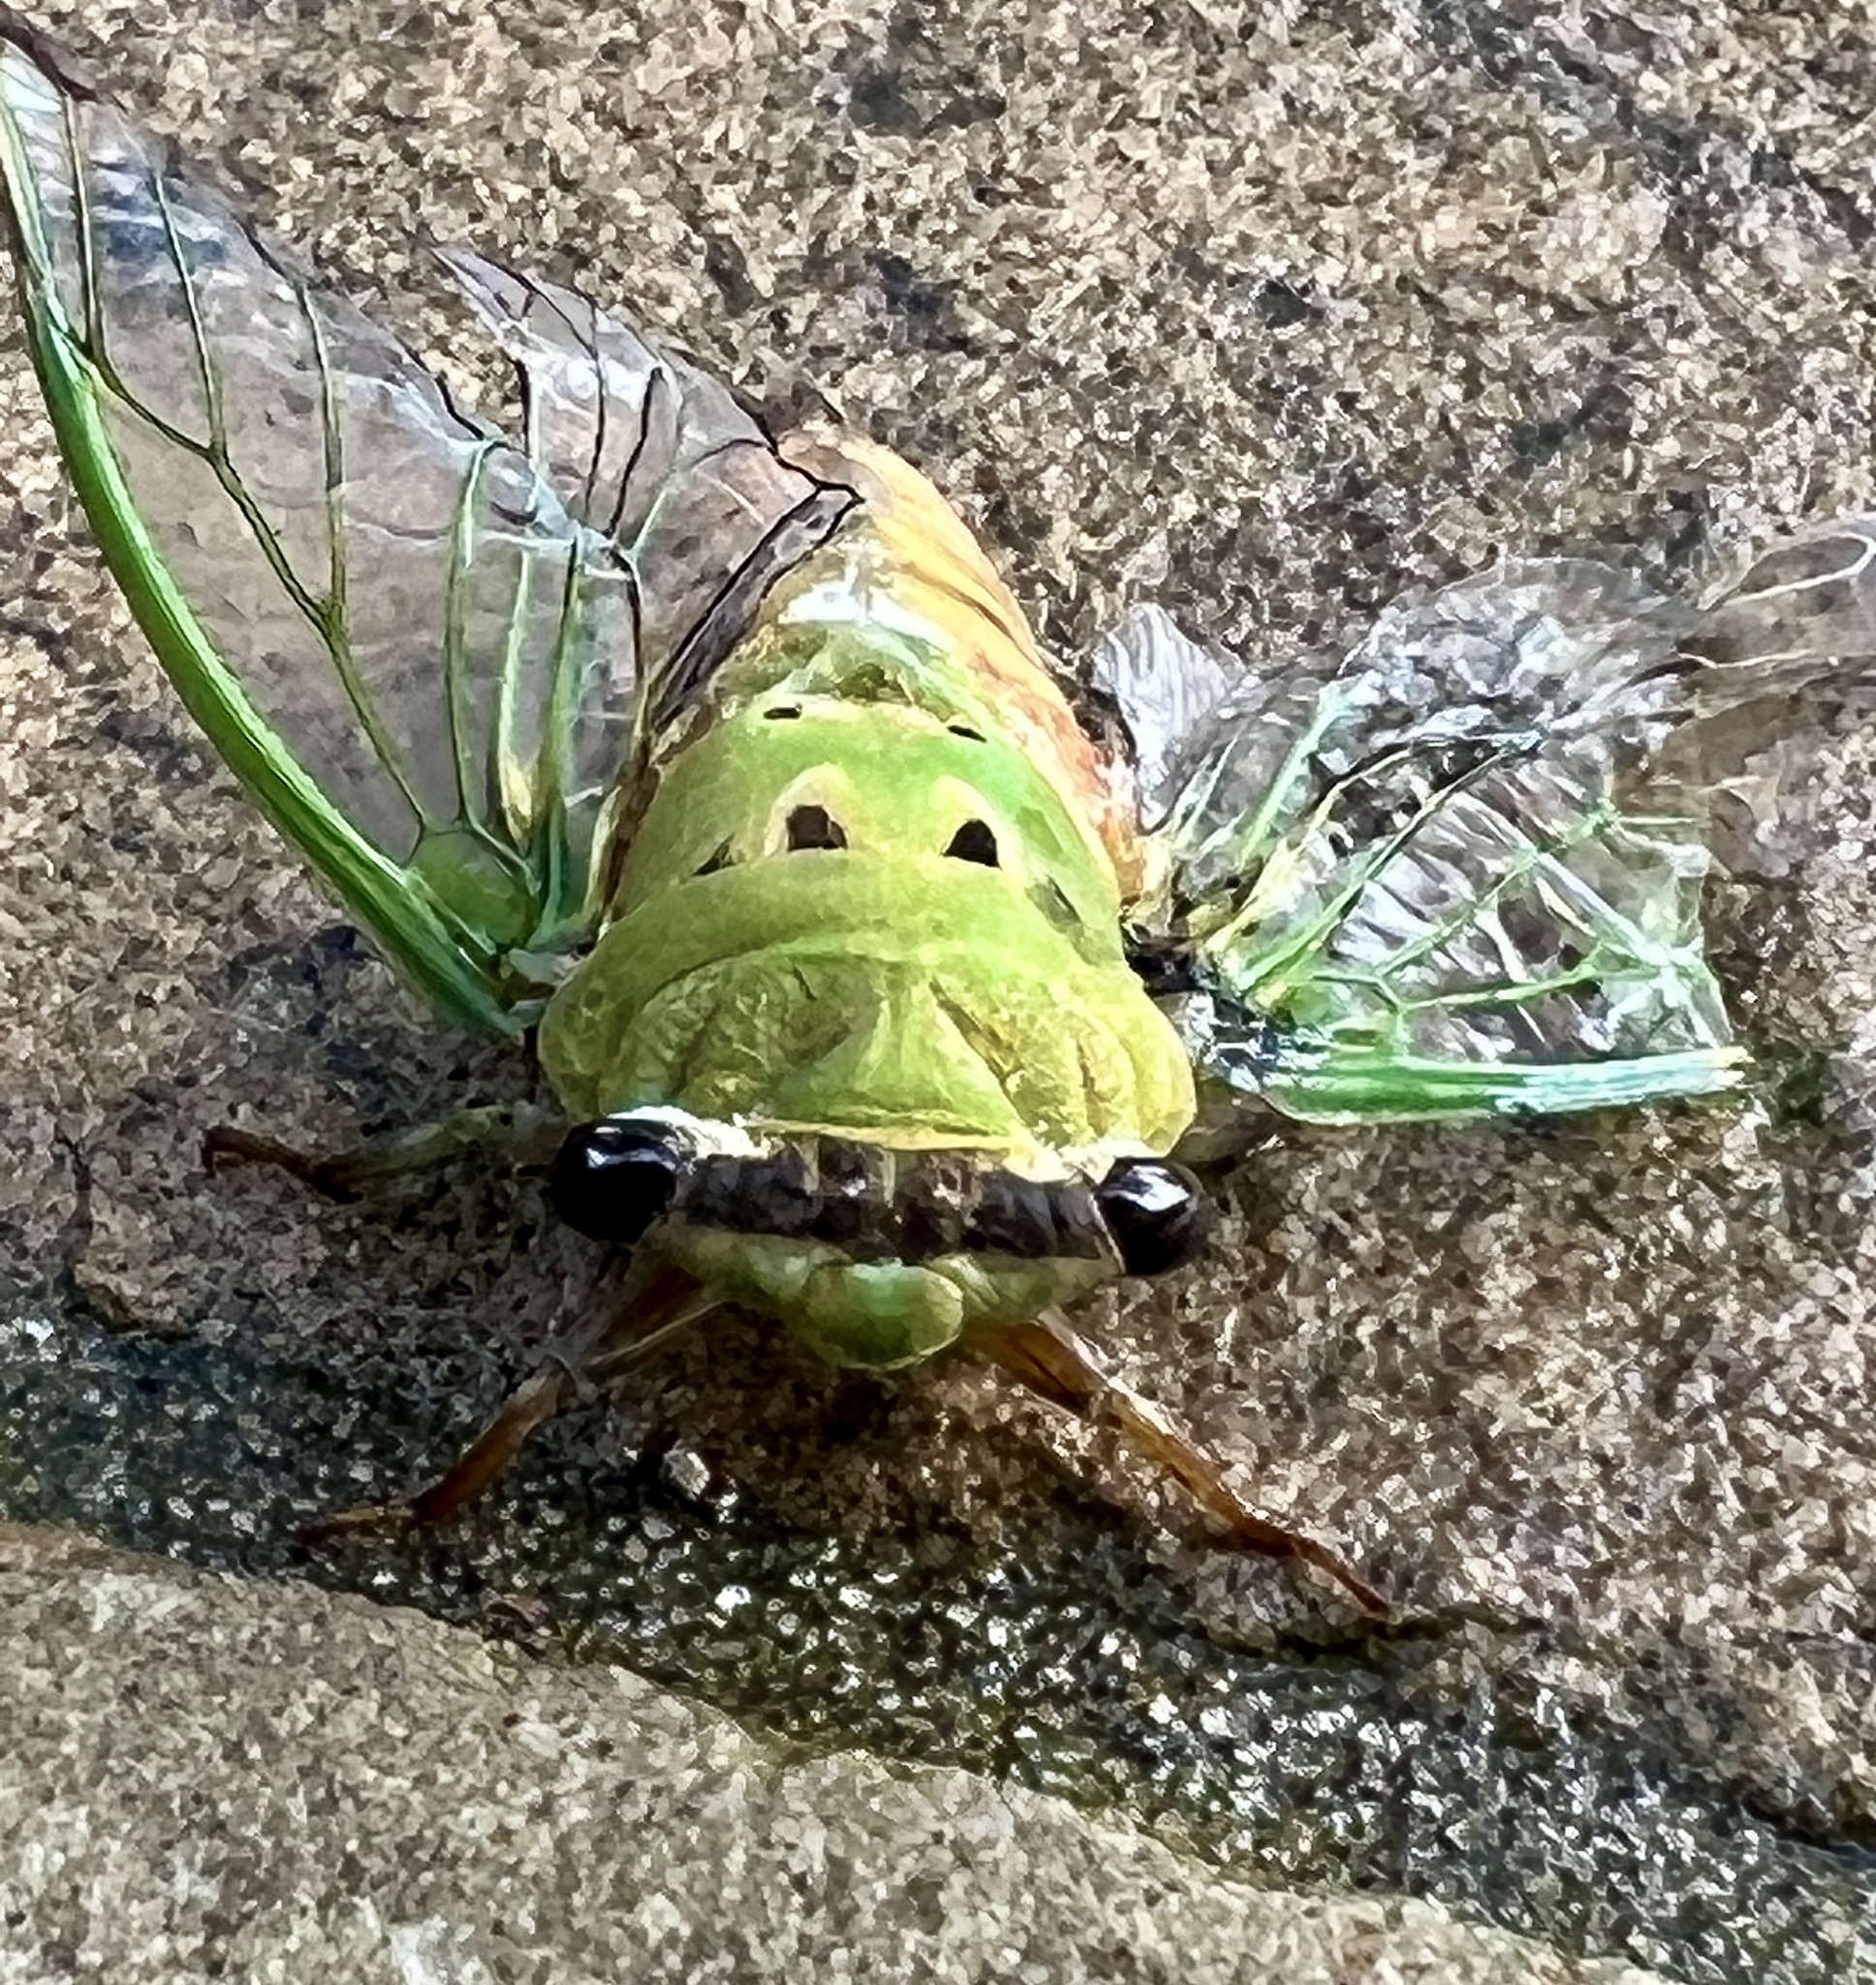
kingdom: Animalia
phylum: Arthropoda
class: Insecta
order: Hemiptera
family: Cicadidae
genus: Neotibicen
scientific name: Neotibicen superbus
